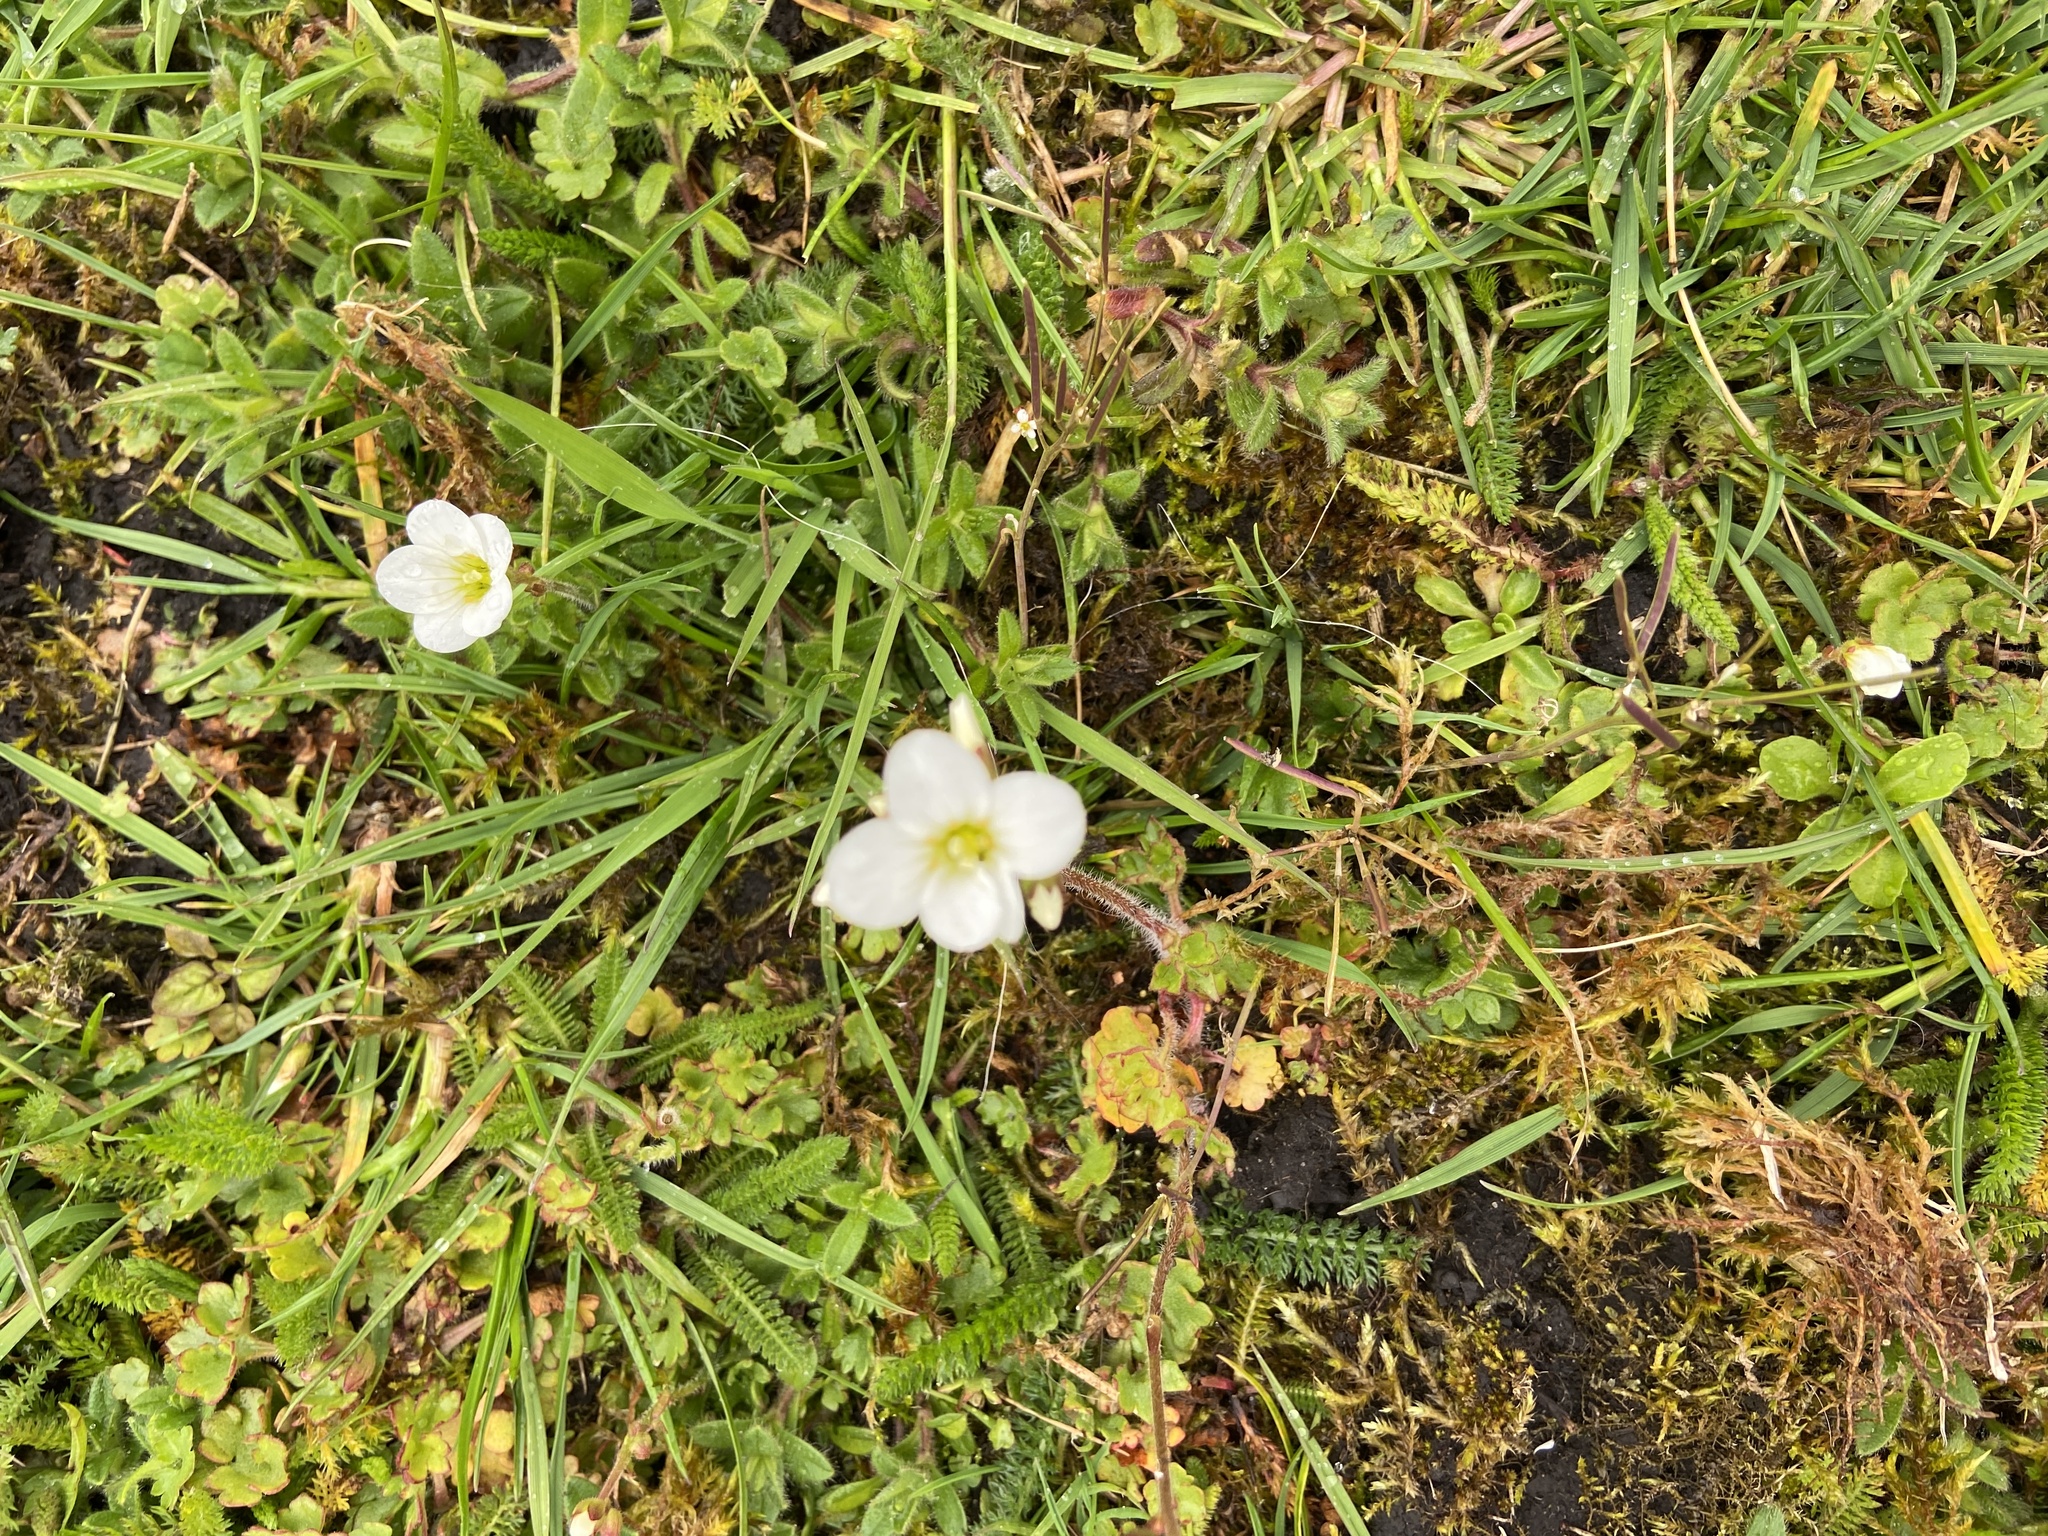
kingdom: Plantae
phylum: Tracheophyta
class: Magnoliopsida
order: Saxifragales
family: Saxifragaceae
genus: Saxifraga
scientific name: Saxifraga granulata
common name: Meadow saxifrage
